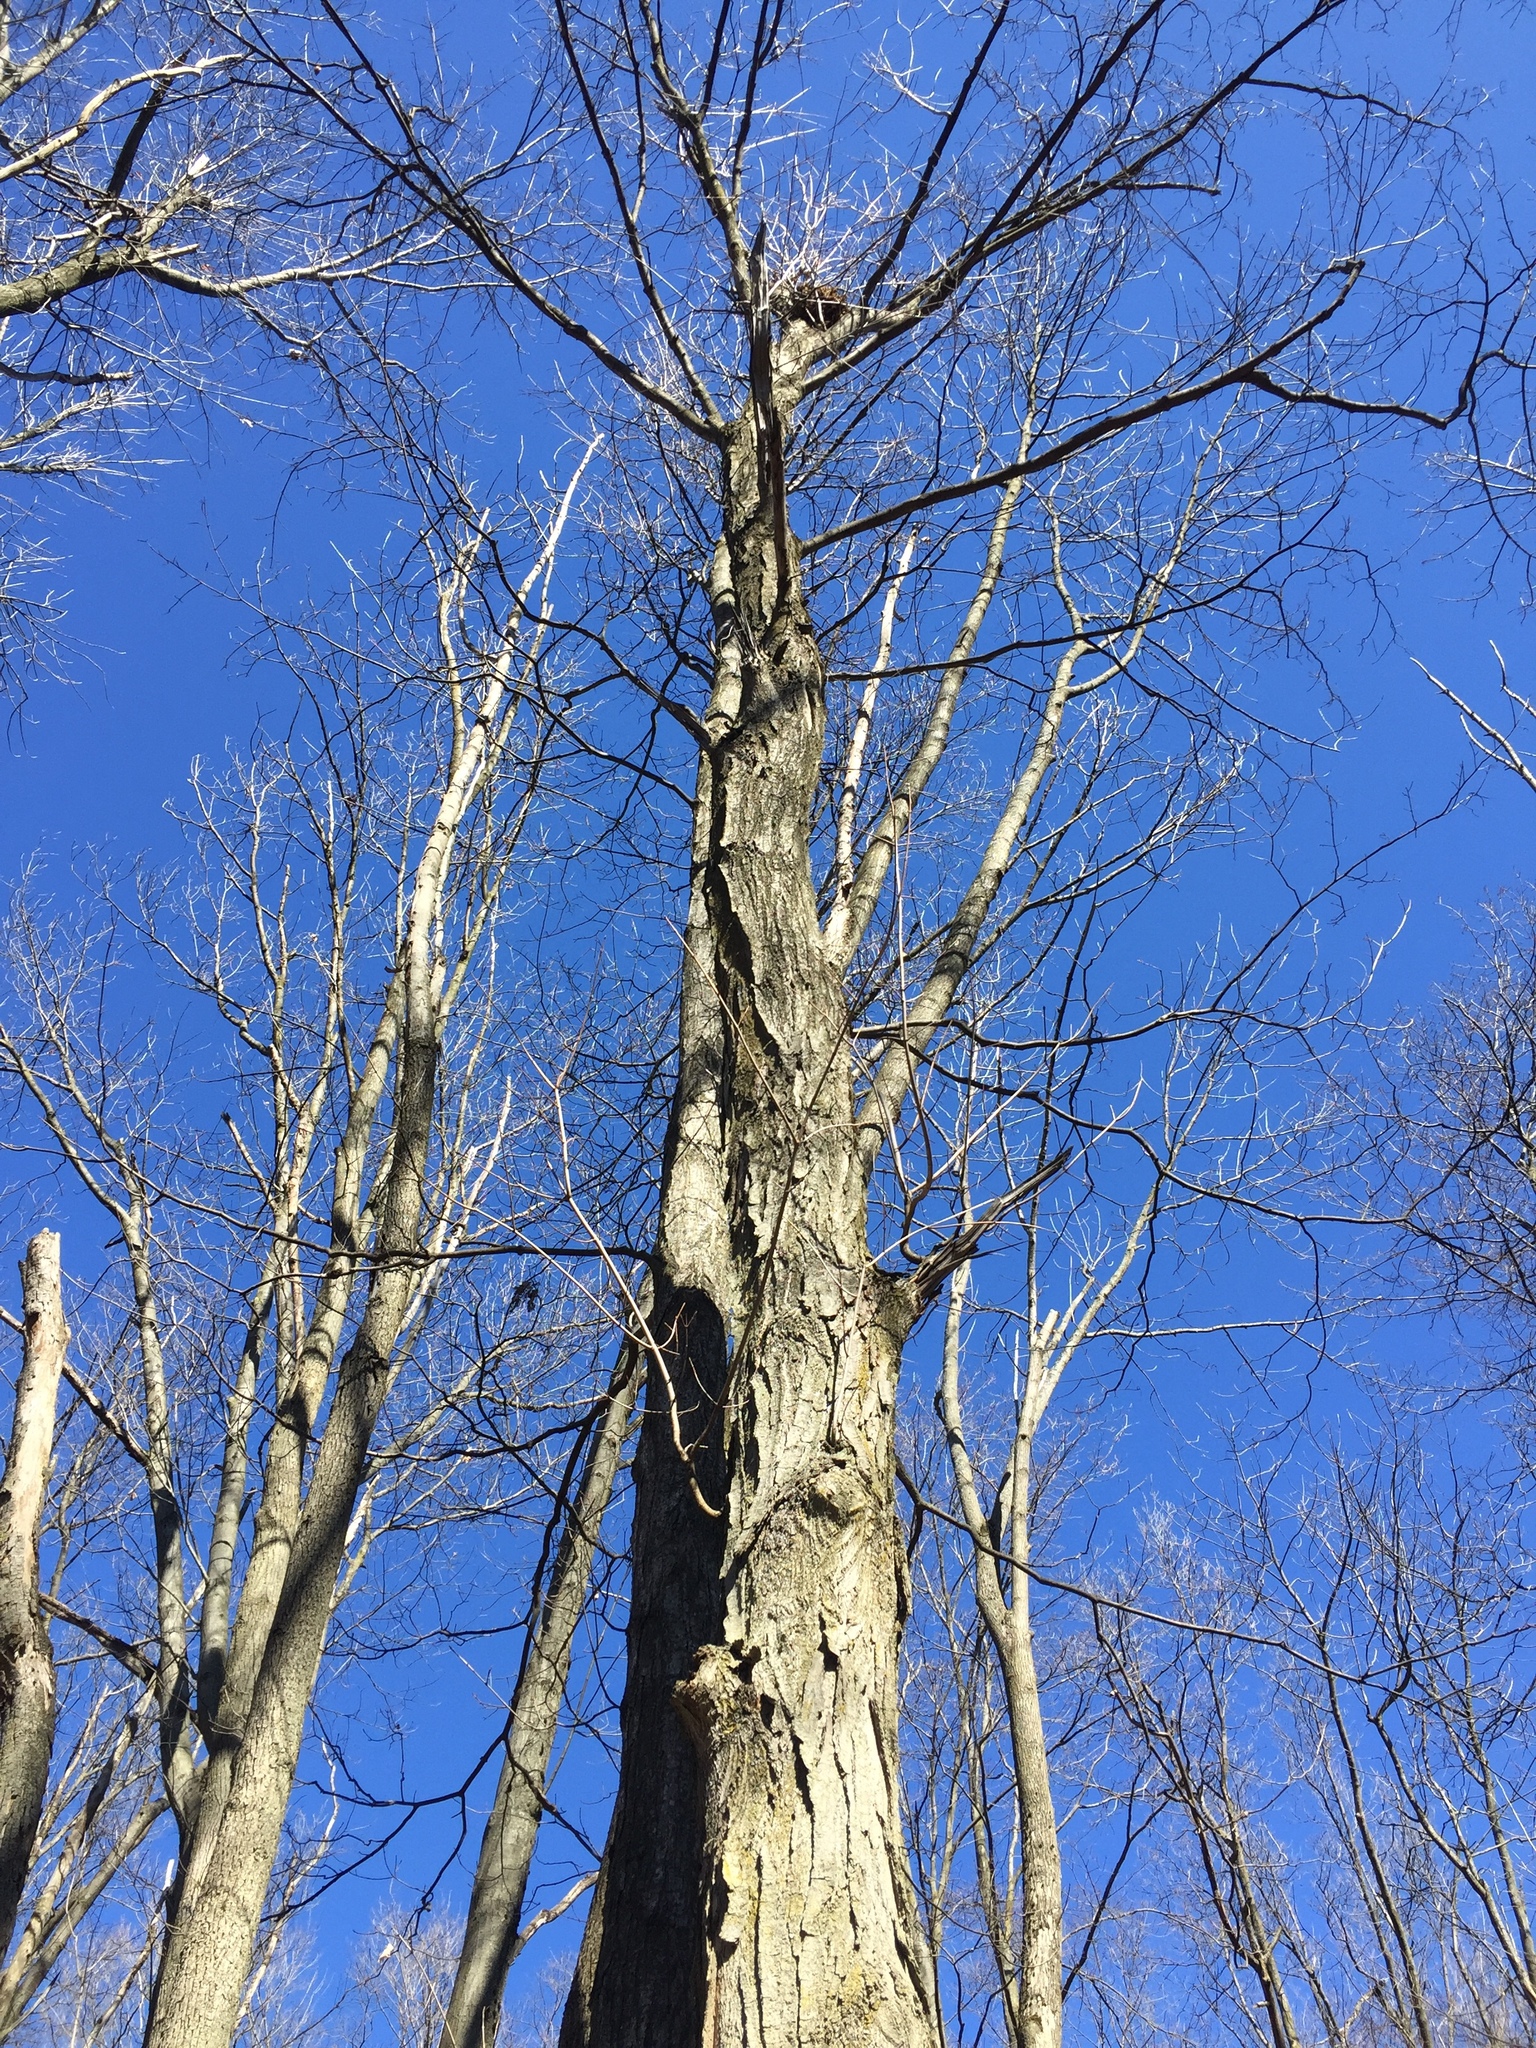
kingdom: Plantae
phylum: Tracheophyta
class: Magnoliopsida
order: Sapindales
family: Sapindaceae
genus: Acer
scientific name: Acer saccharum
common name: Sugar maple
